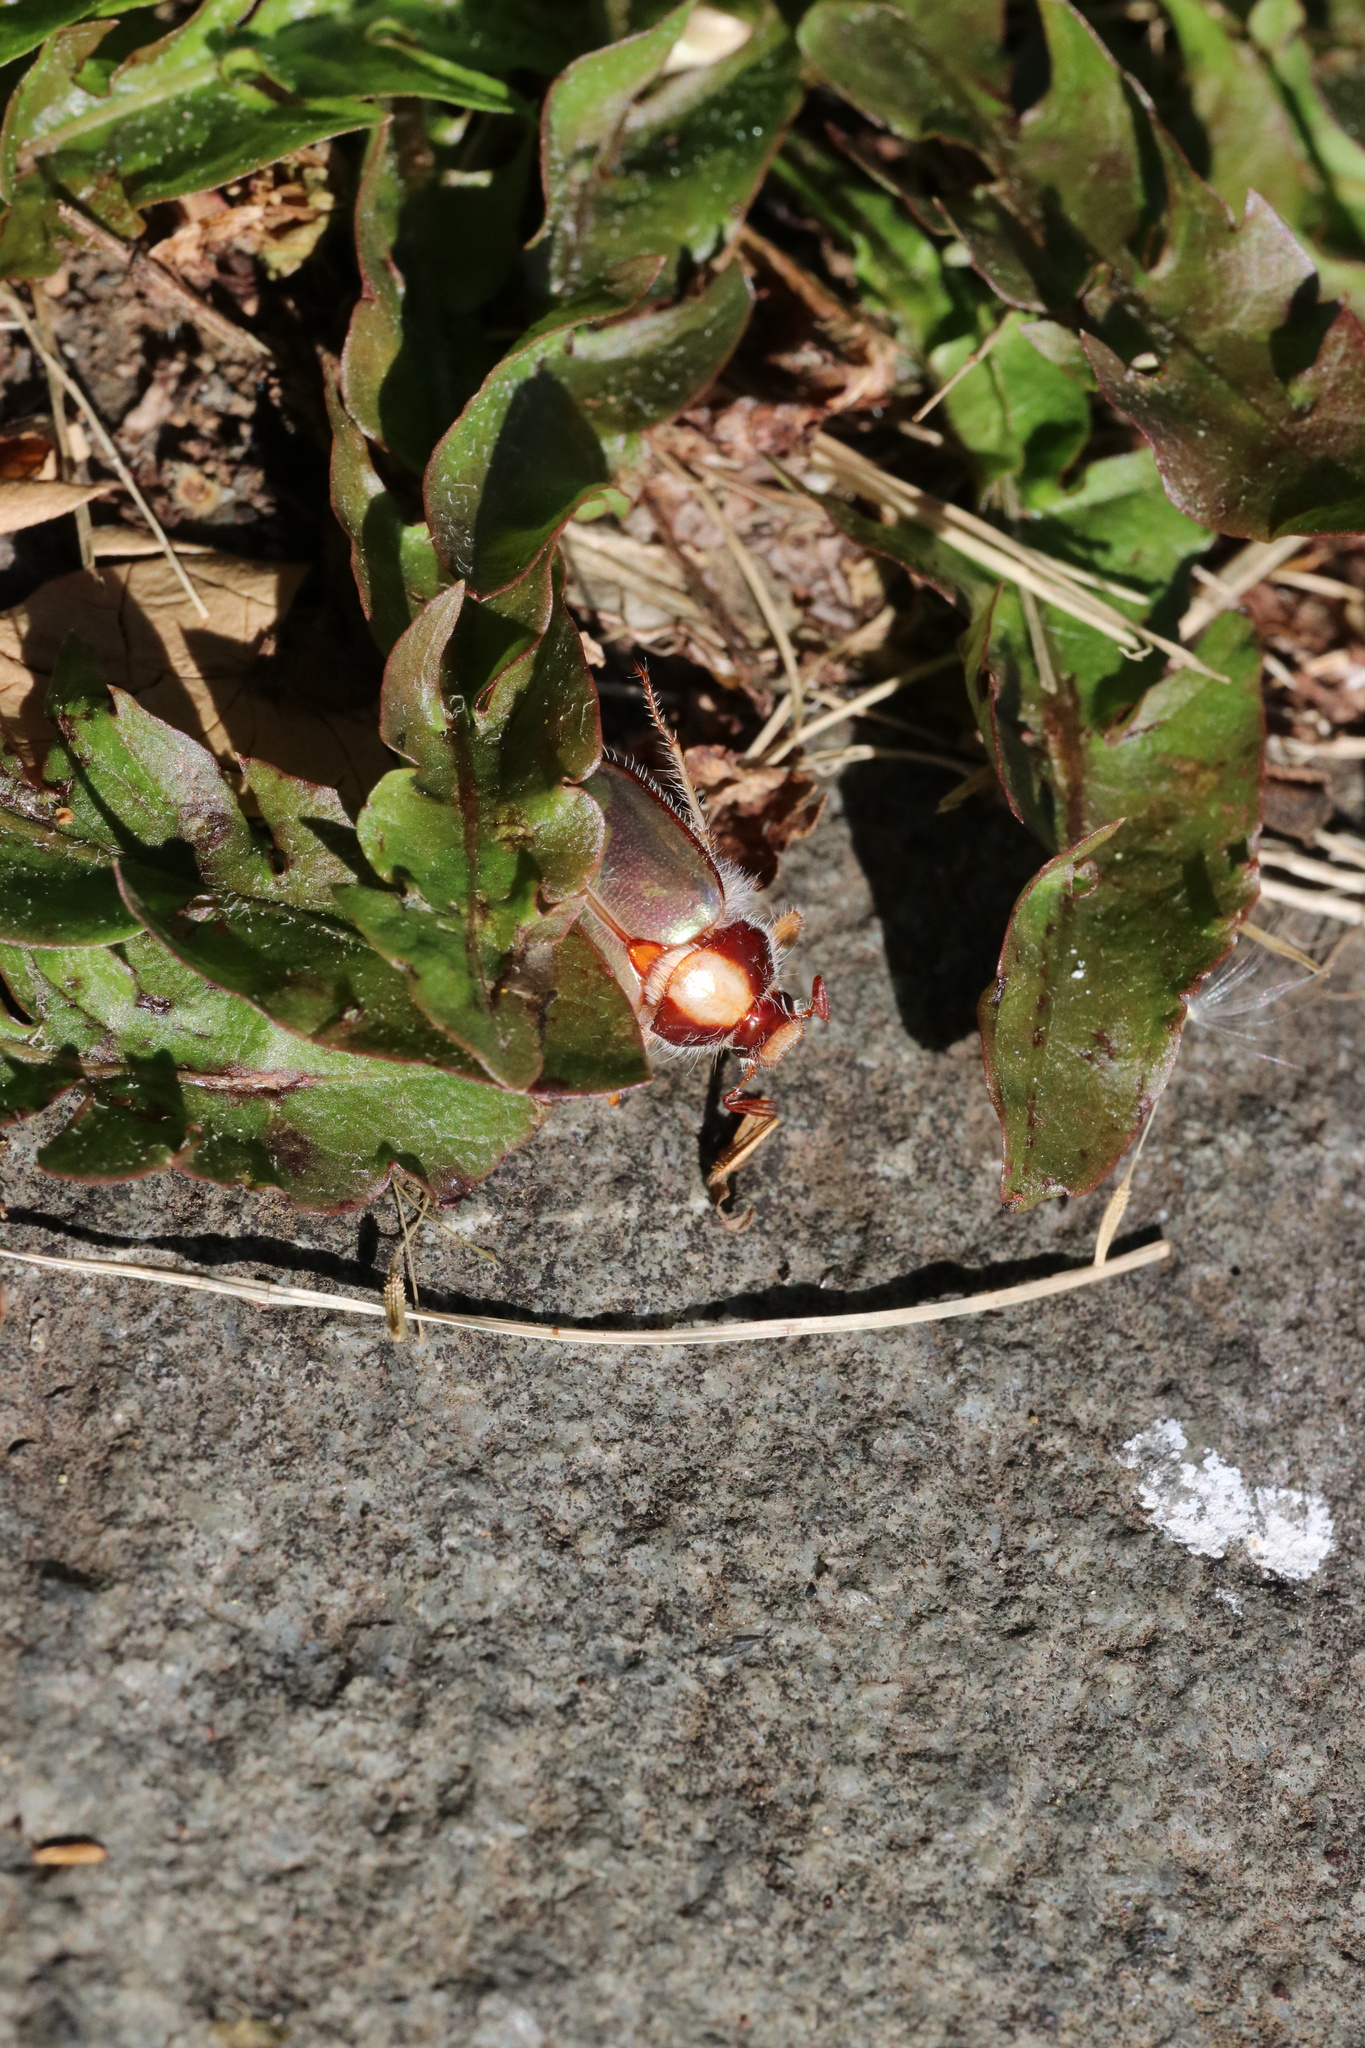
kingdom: Animalia
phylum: Arthropoda
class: Insecta
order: Coleoptera
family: Scarabaeidae
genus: Phytholaema
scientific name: Phytholaema mutabilis
